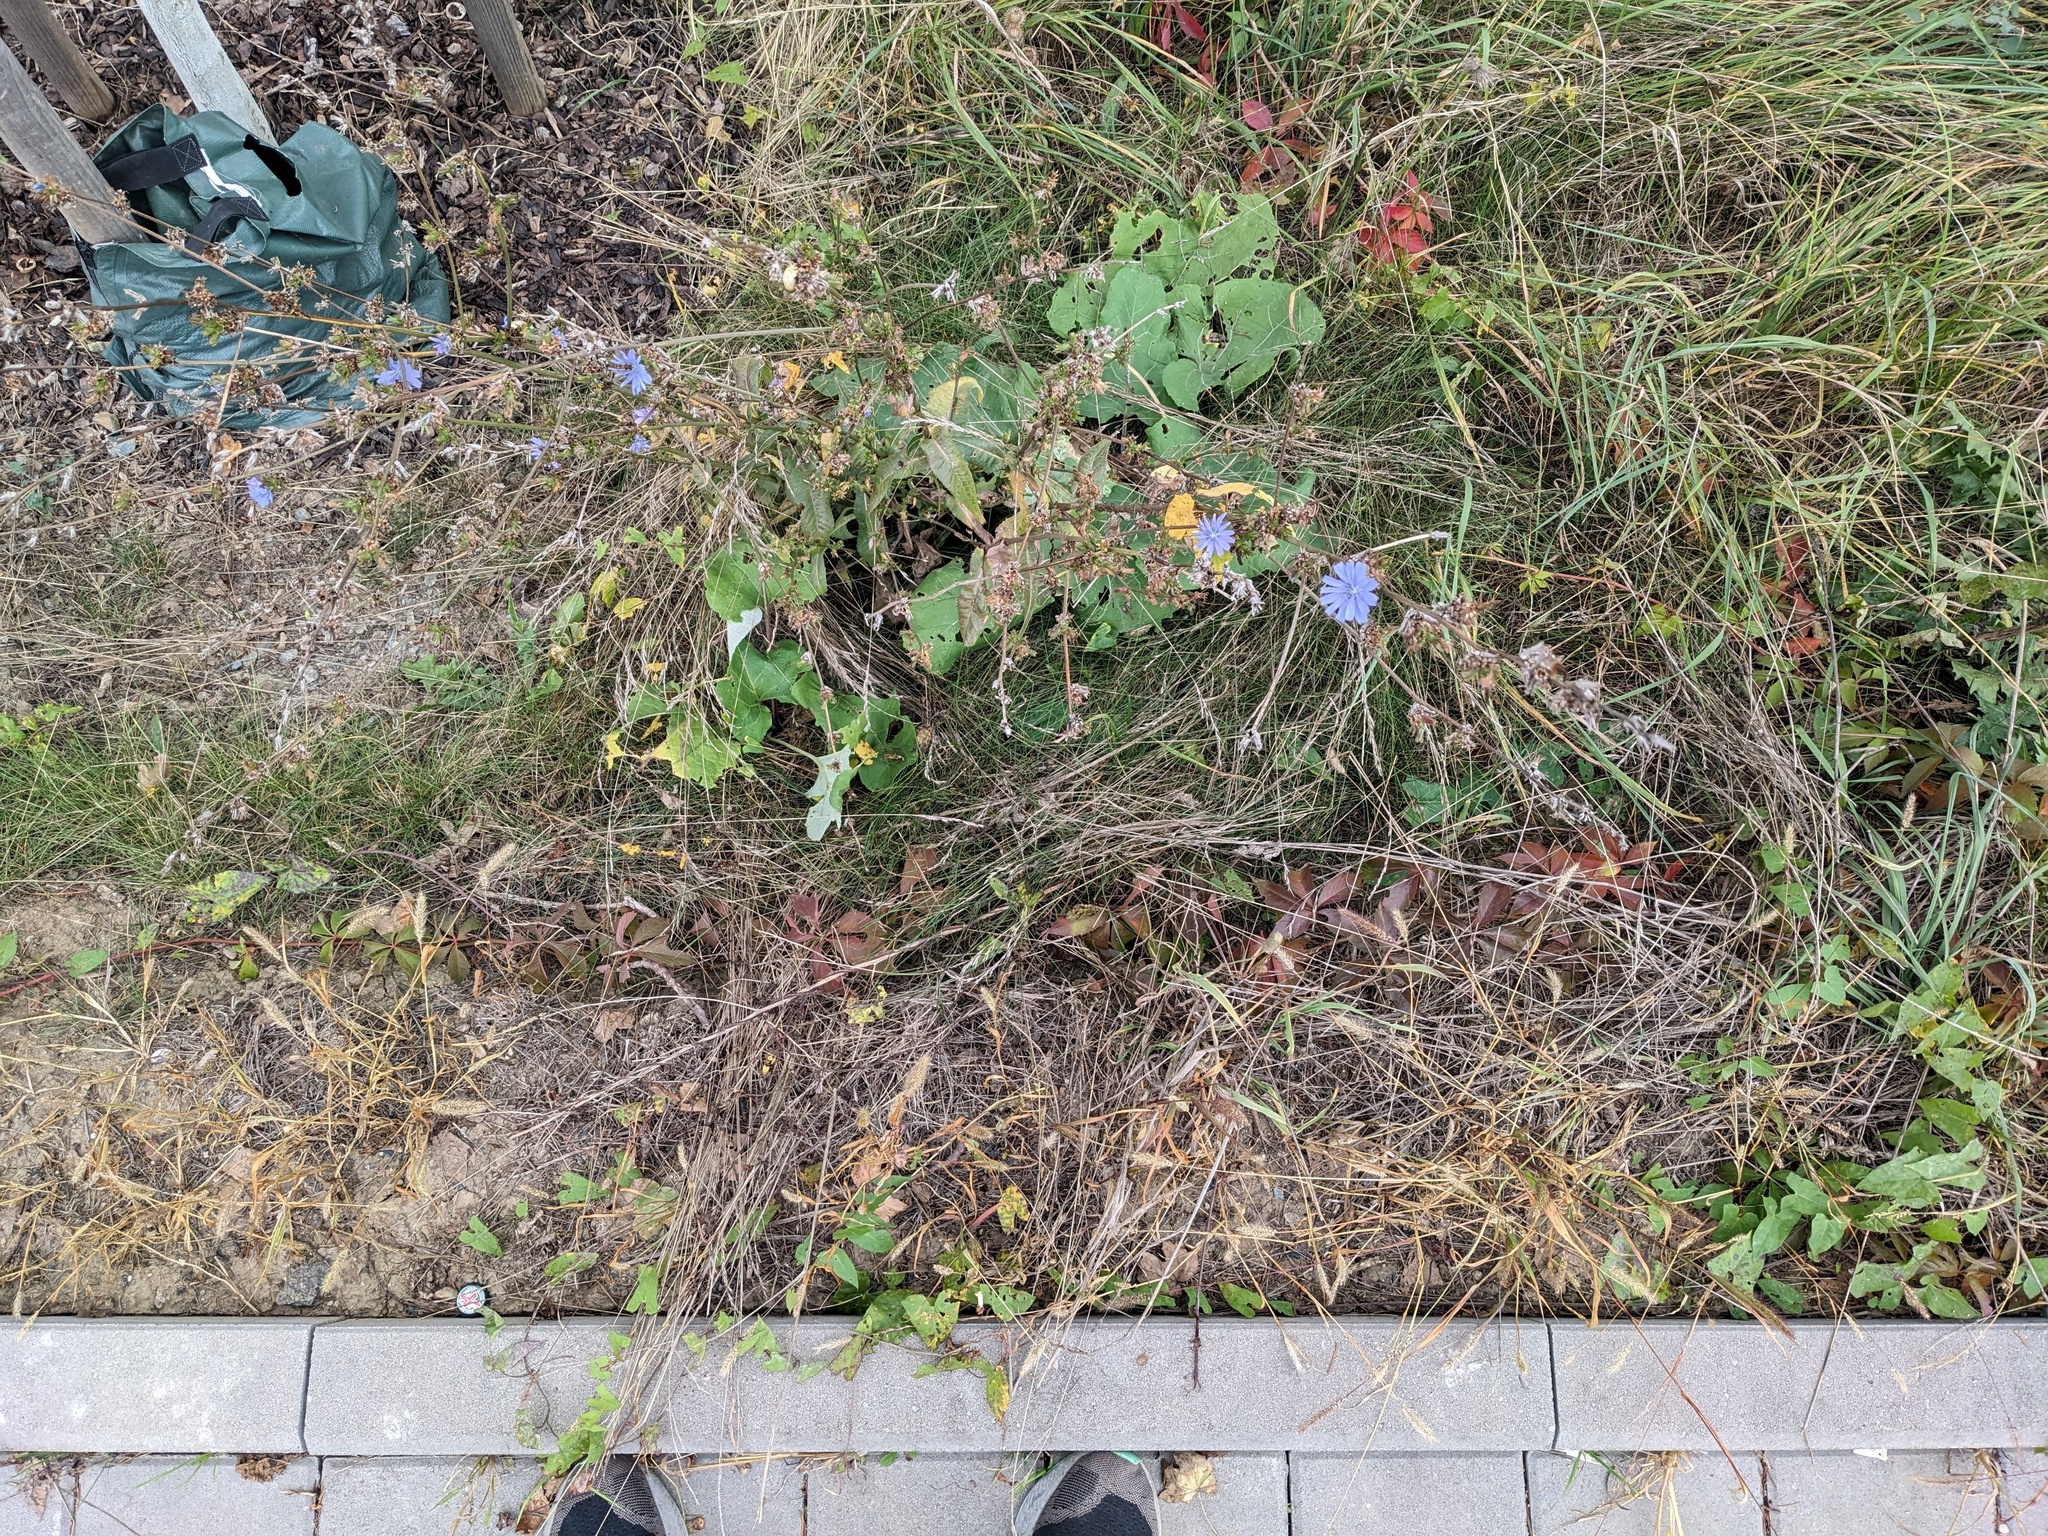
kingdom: Plantae
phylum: Tracheophyta
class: Magnoliopsida
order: Asterales
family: Asteraceae
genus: Cichorium
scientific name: Cichorium intybus
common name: Chicory
